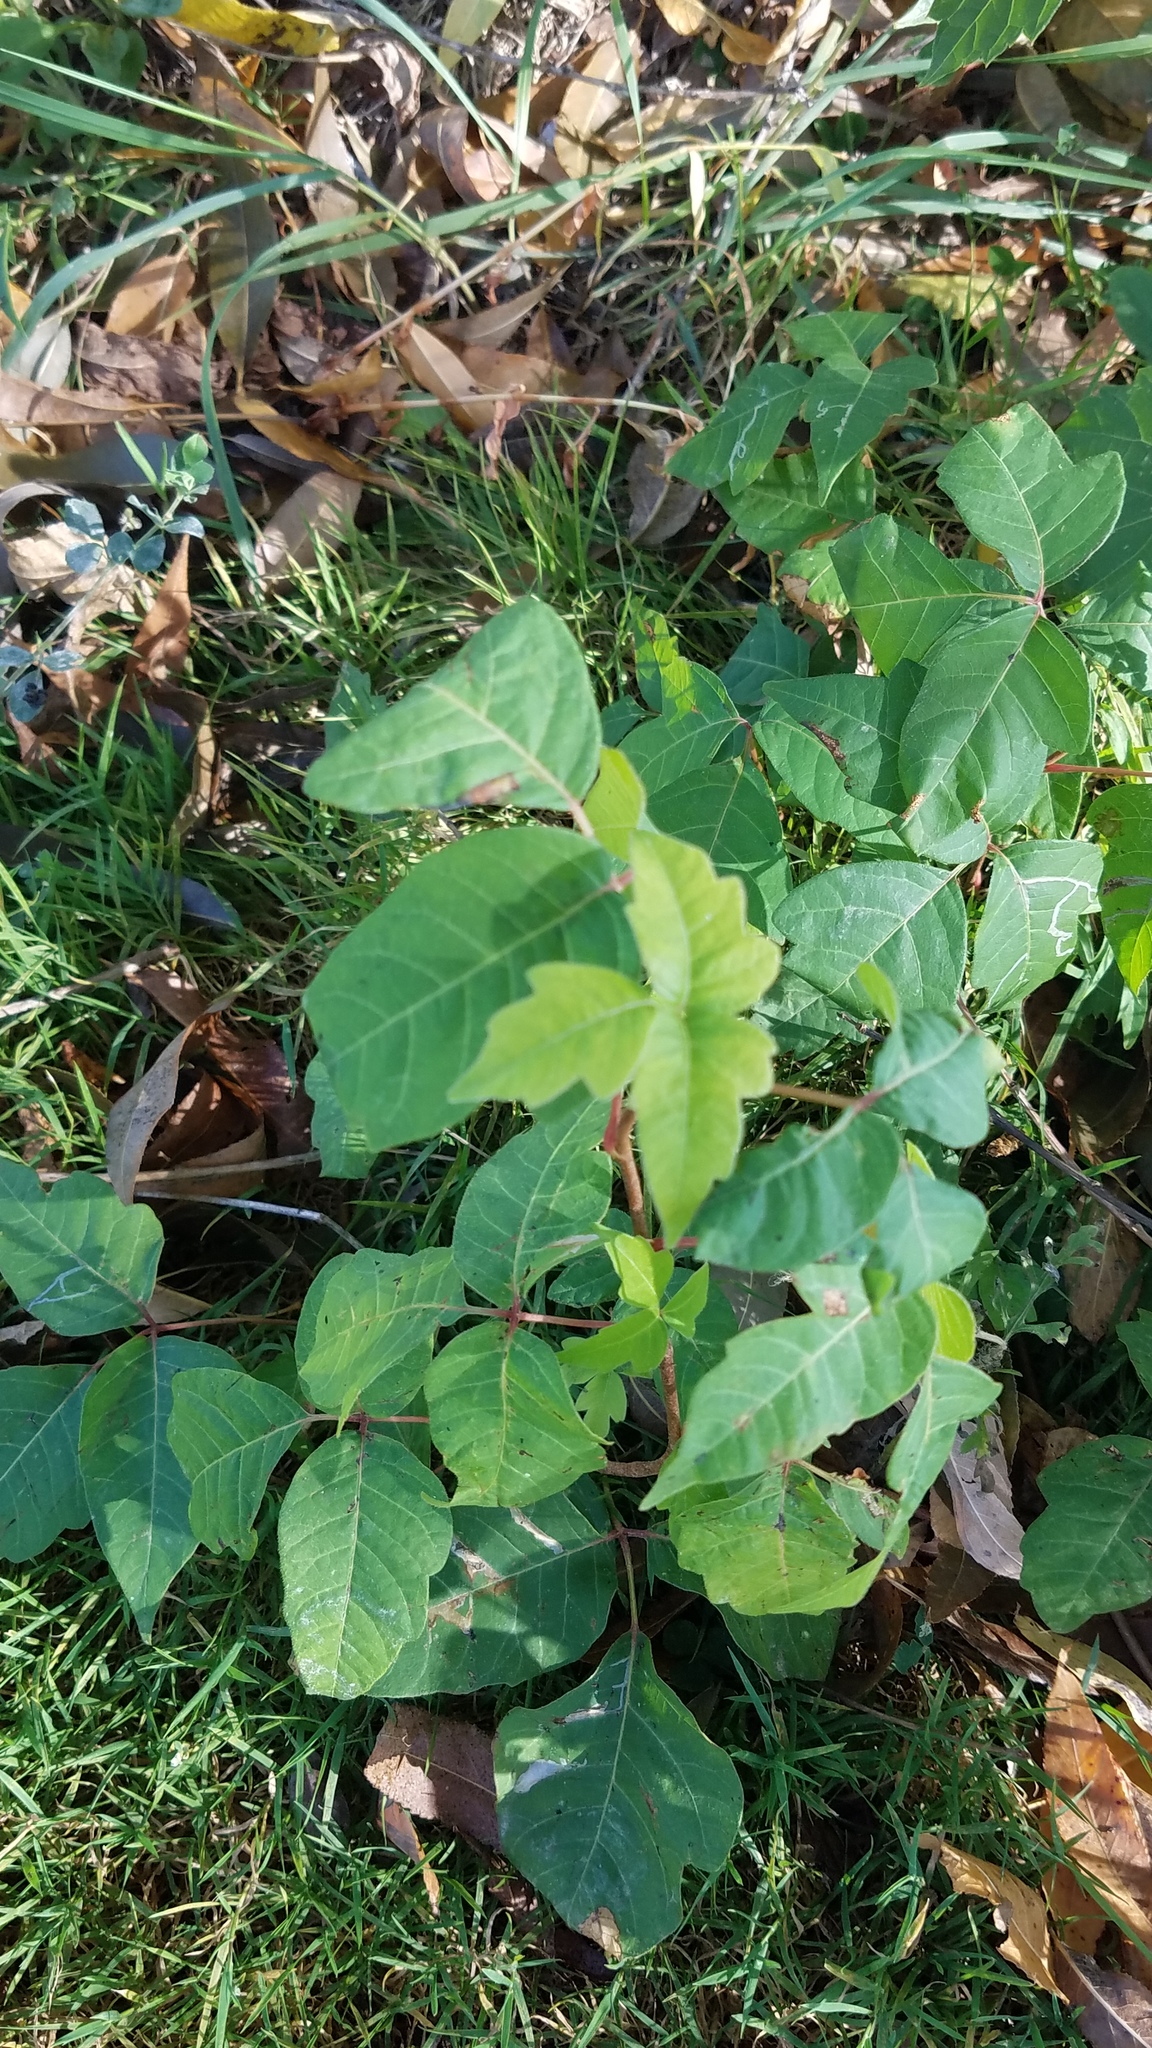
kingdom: Plantae
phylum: Tracheophyta
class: Magnoliopsida
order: Sapindales
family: Anacardiaceae
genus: Toxicodendron
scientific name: Toxicodendron radicans
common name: Poison ivy
